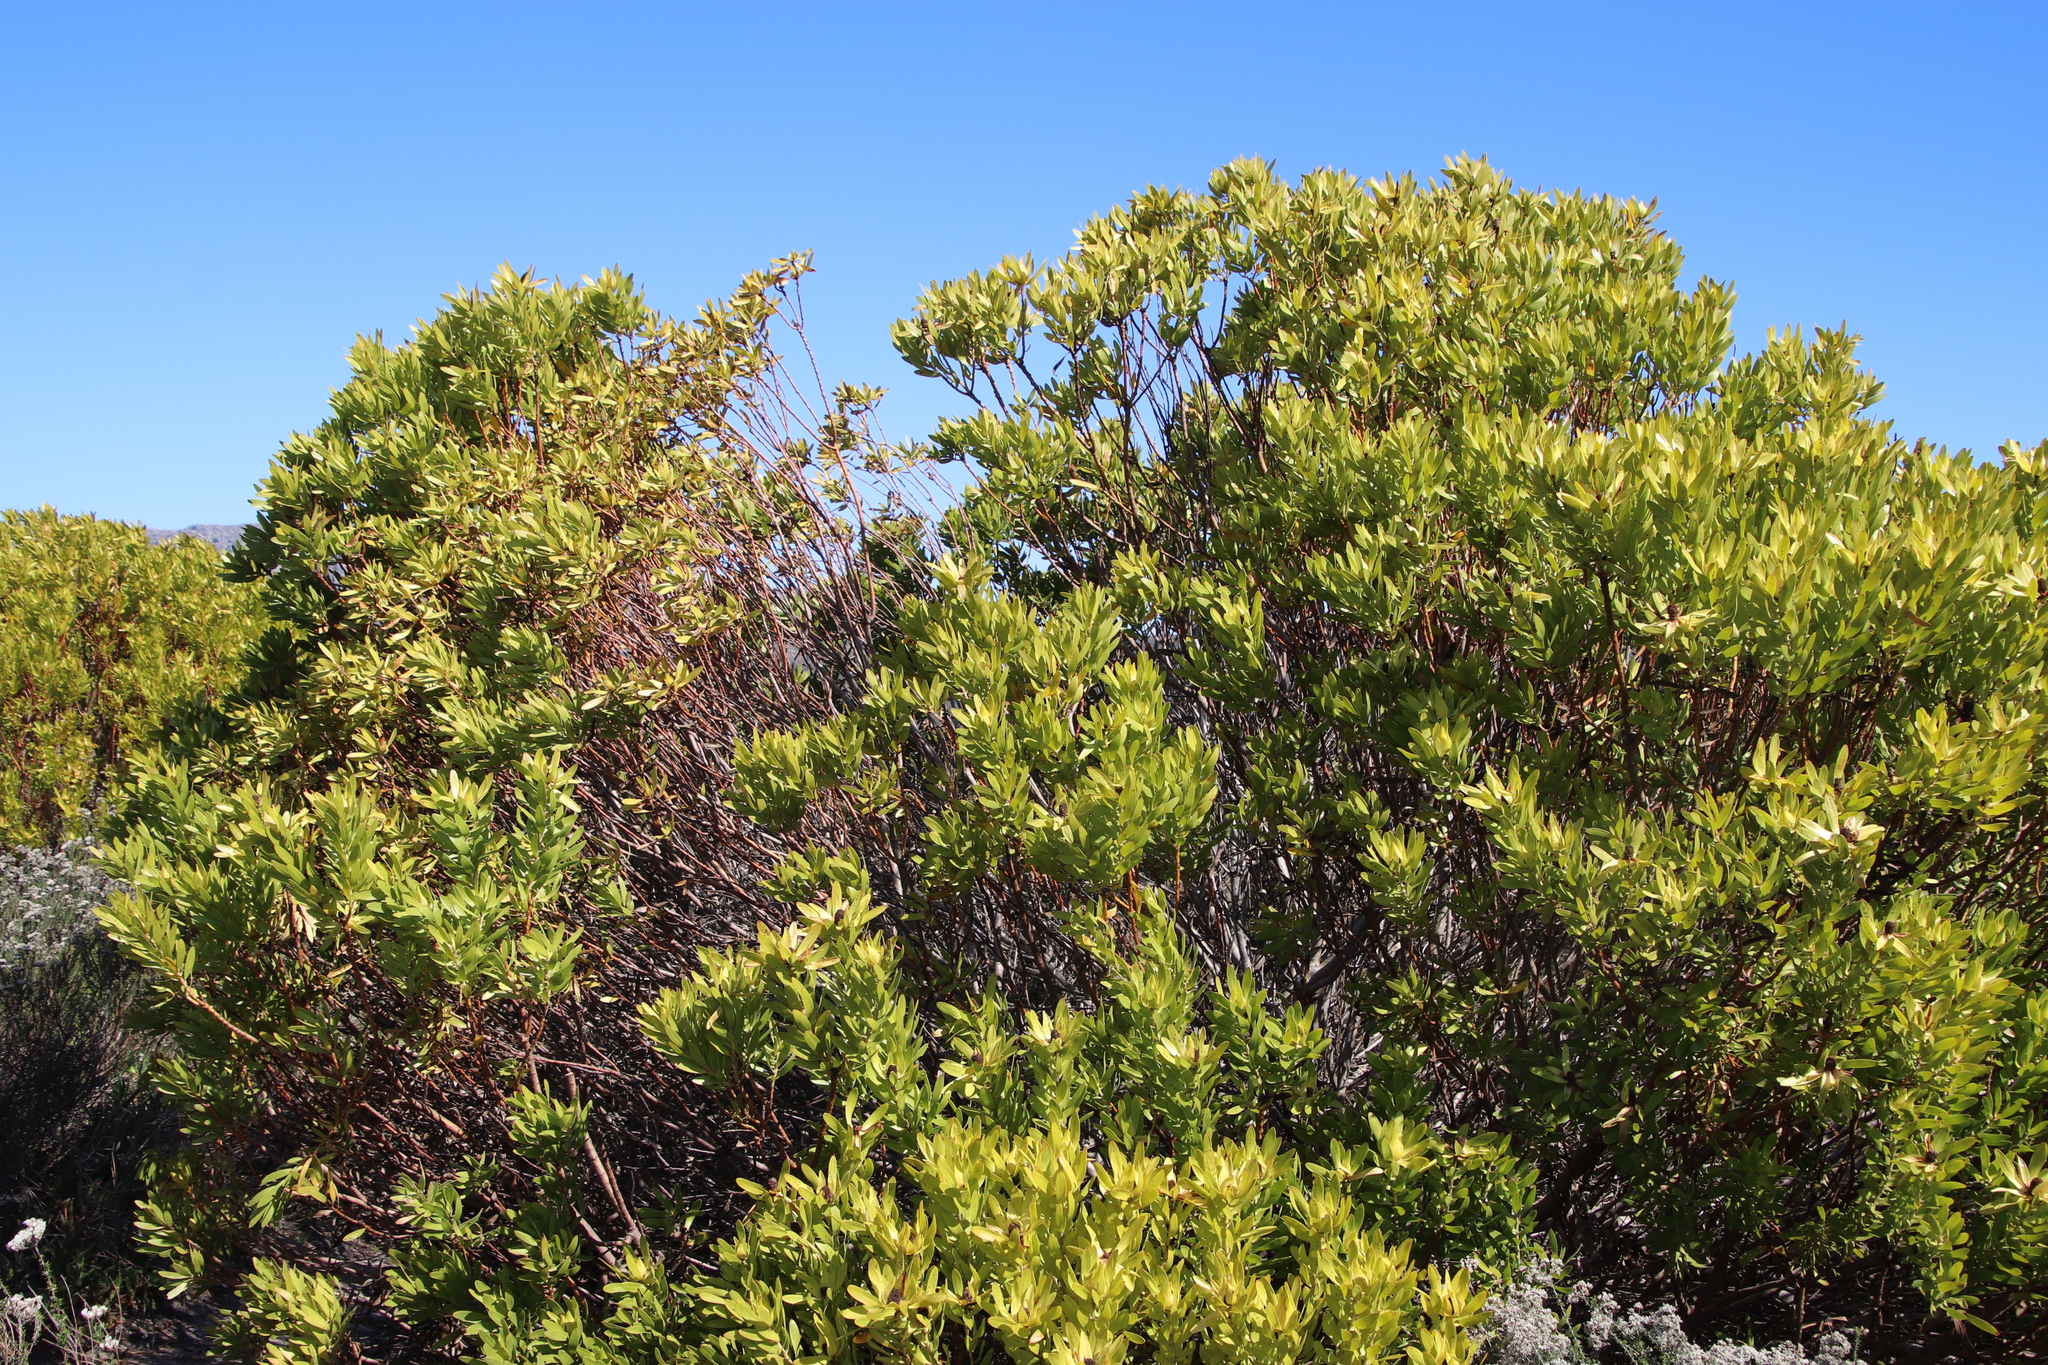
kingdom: Plantae
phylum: Tracheophyta
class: Magnoliopsida
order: Proteales
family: Proteaceae
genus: Leucadendron
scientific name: Leucadendron laureolum
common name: Golden sunshinebush
